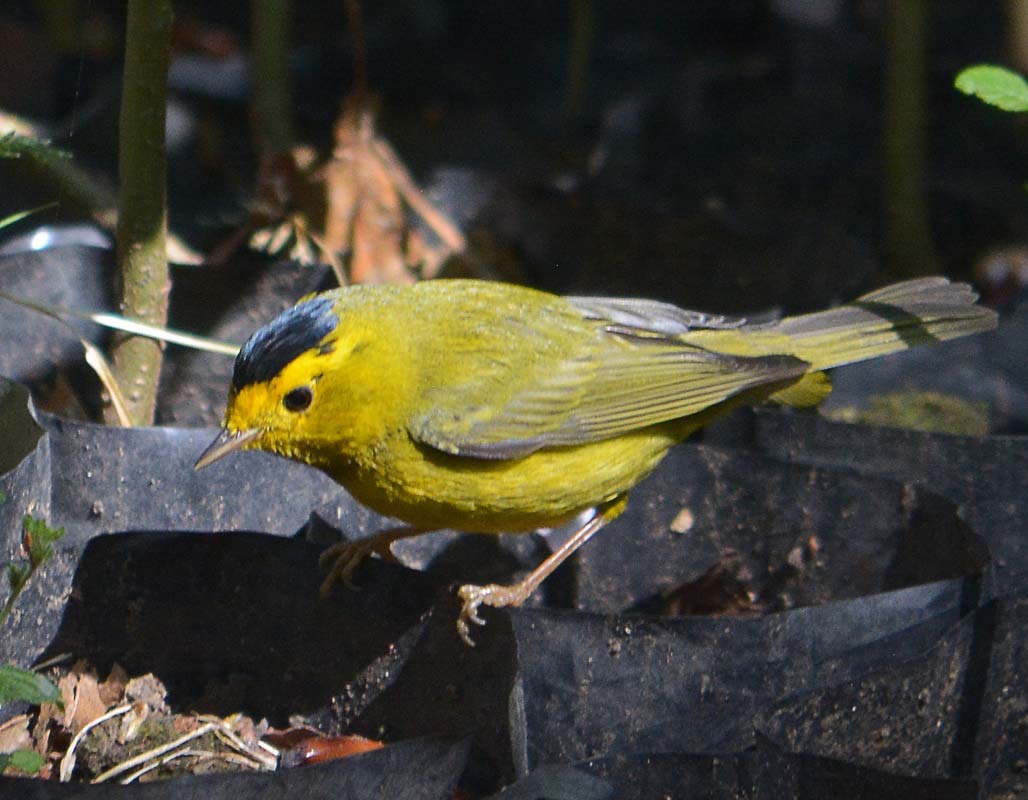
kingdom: Animalia
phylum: Chordata
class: Aves
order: Passeriformes
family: Parulidae
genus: Cardellina
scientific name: Cardellina pusilla
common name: Wilson's warbler
